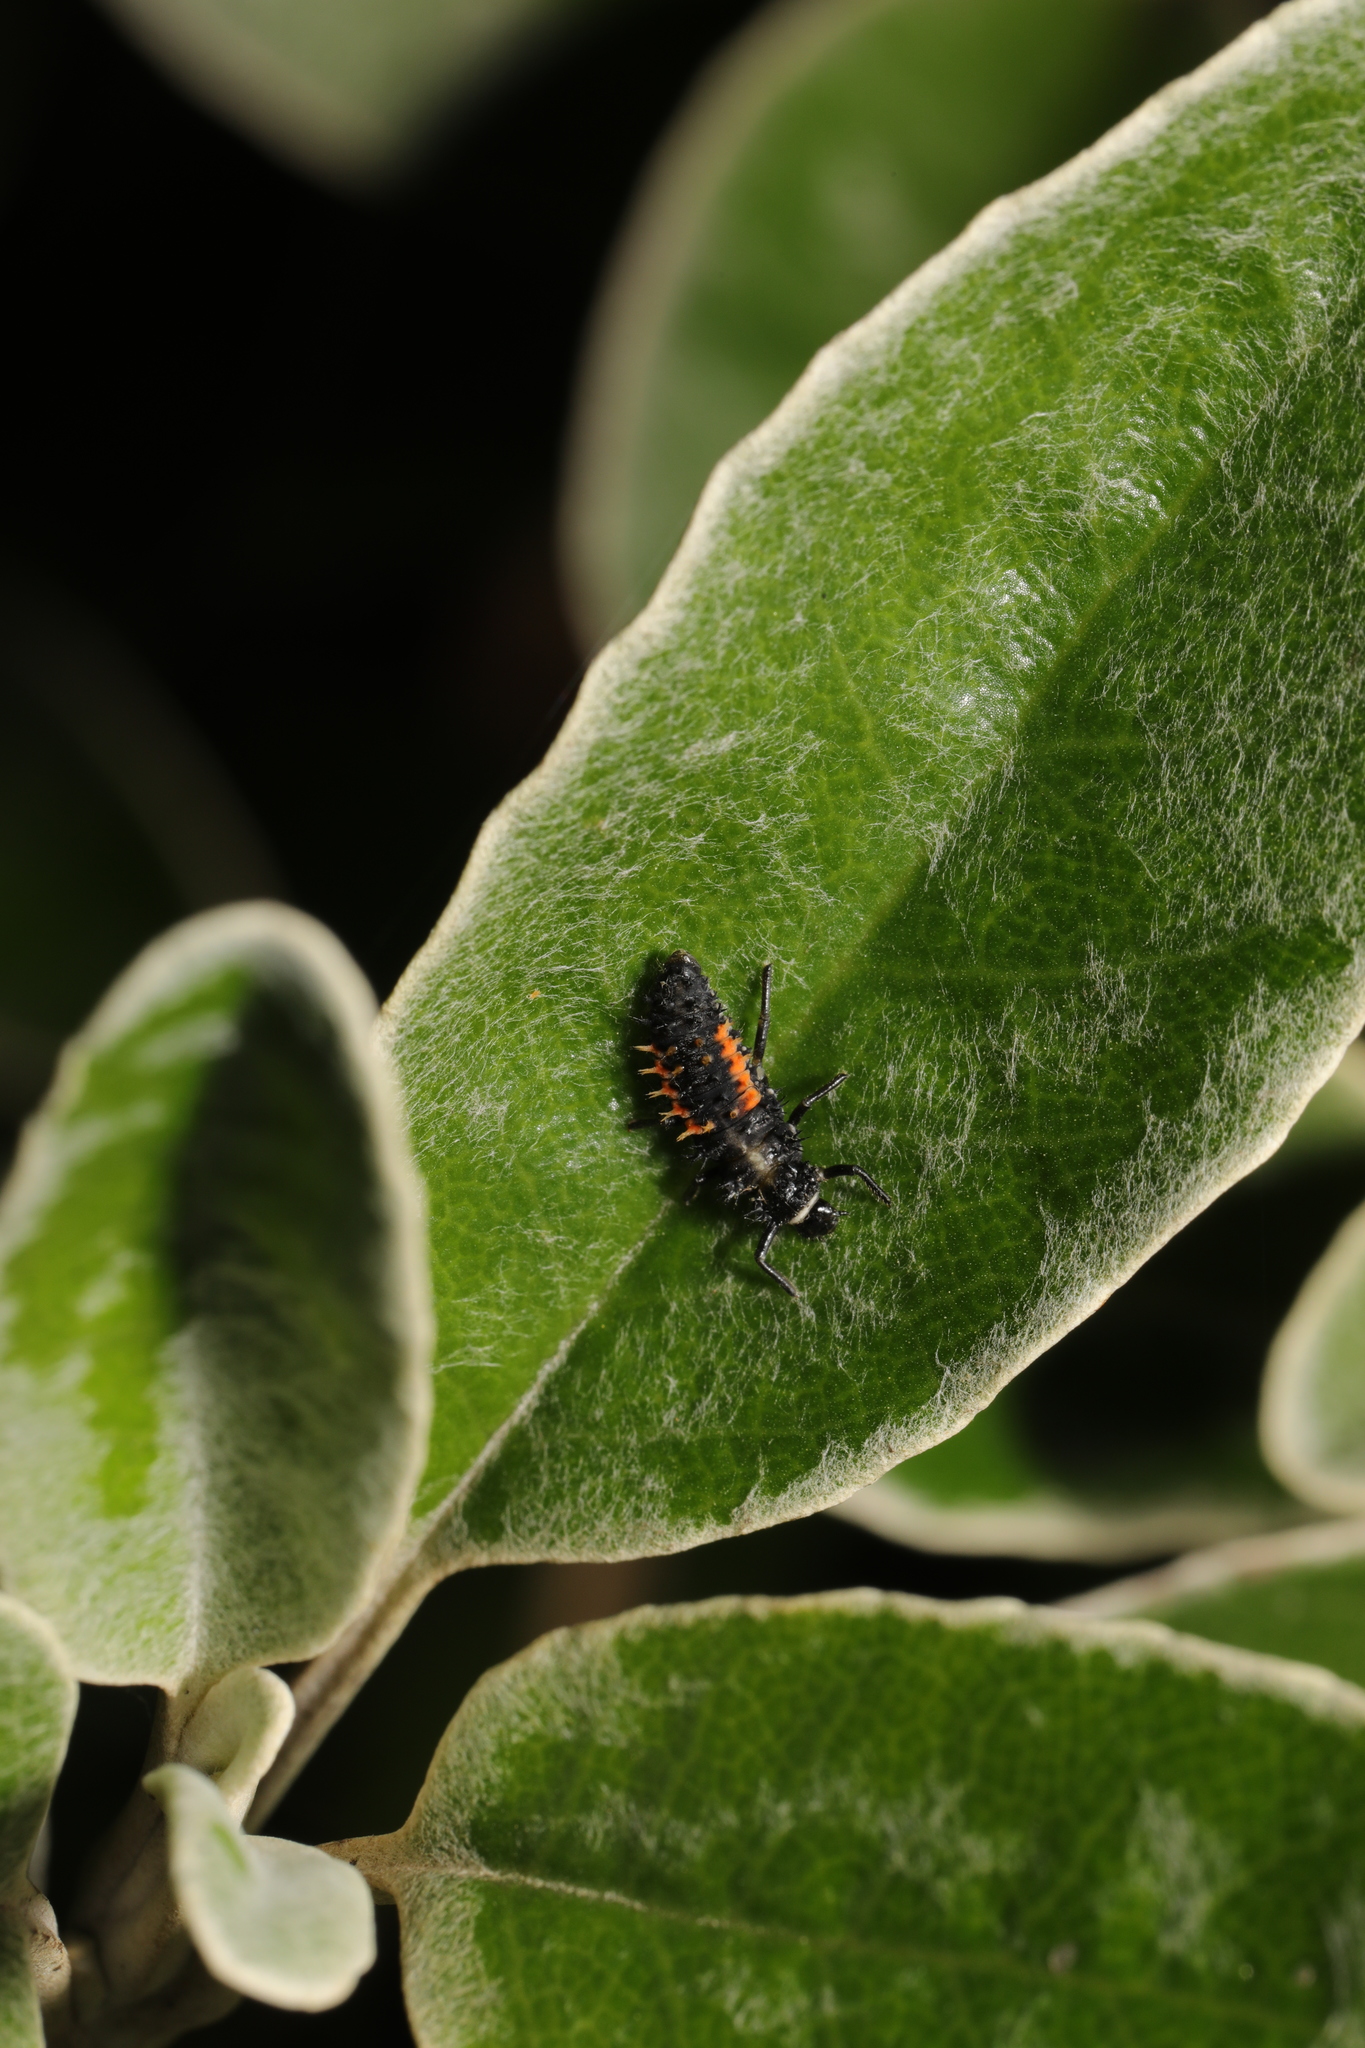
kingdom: Animalia
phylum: Arthropoda
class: Insecta
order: Coleoptera
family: Coccinellidae
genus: Harmonia
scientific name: Harmonia axyridis
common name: Harlequin ladybird
